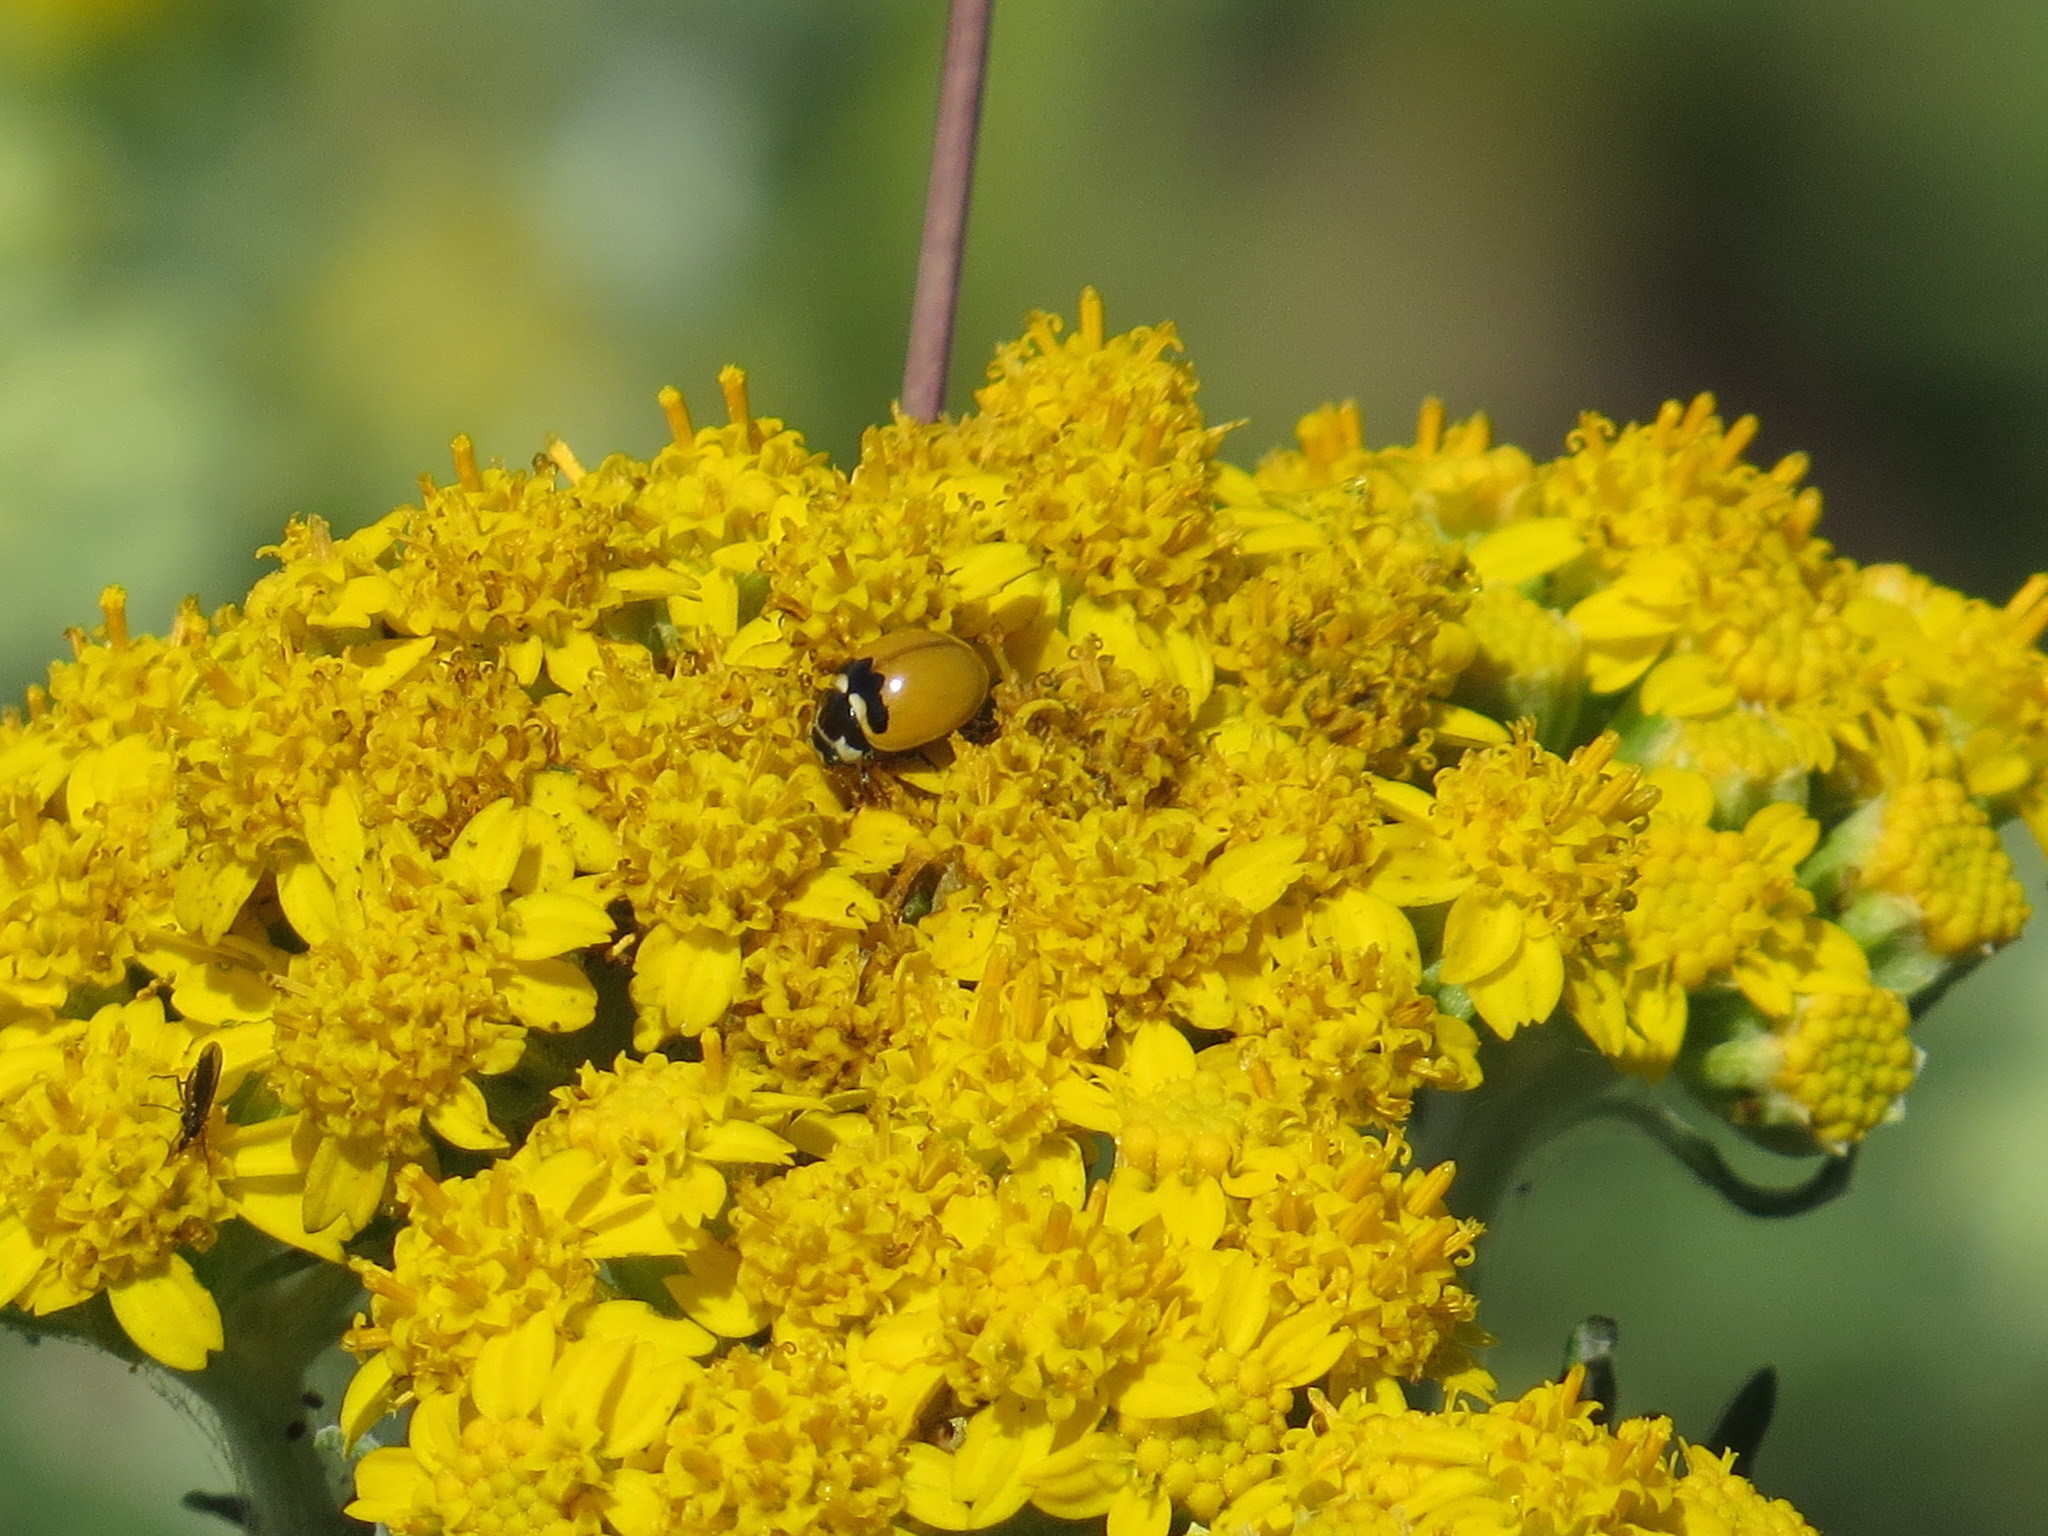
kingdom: Animalia
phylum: Arthropoda
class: Insecta
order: Coleoptera
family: Coccinellidae
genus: Coccinella
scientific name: Coccinella trifasciata
